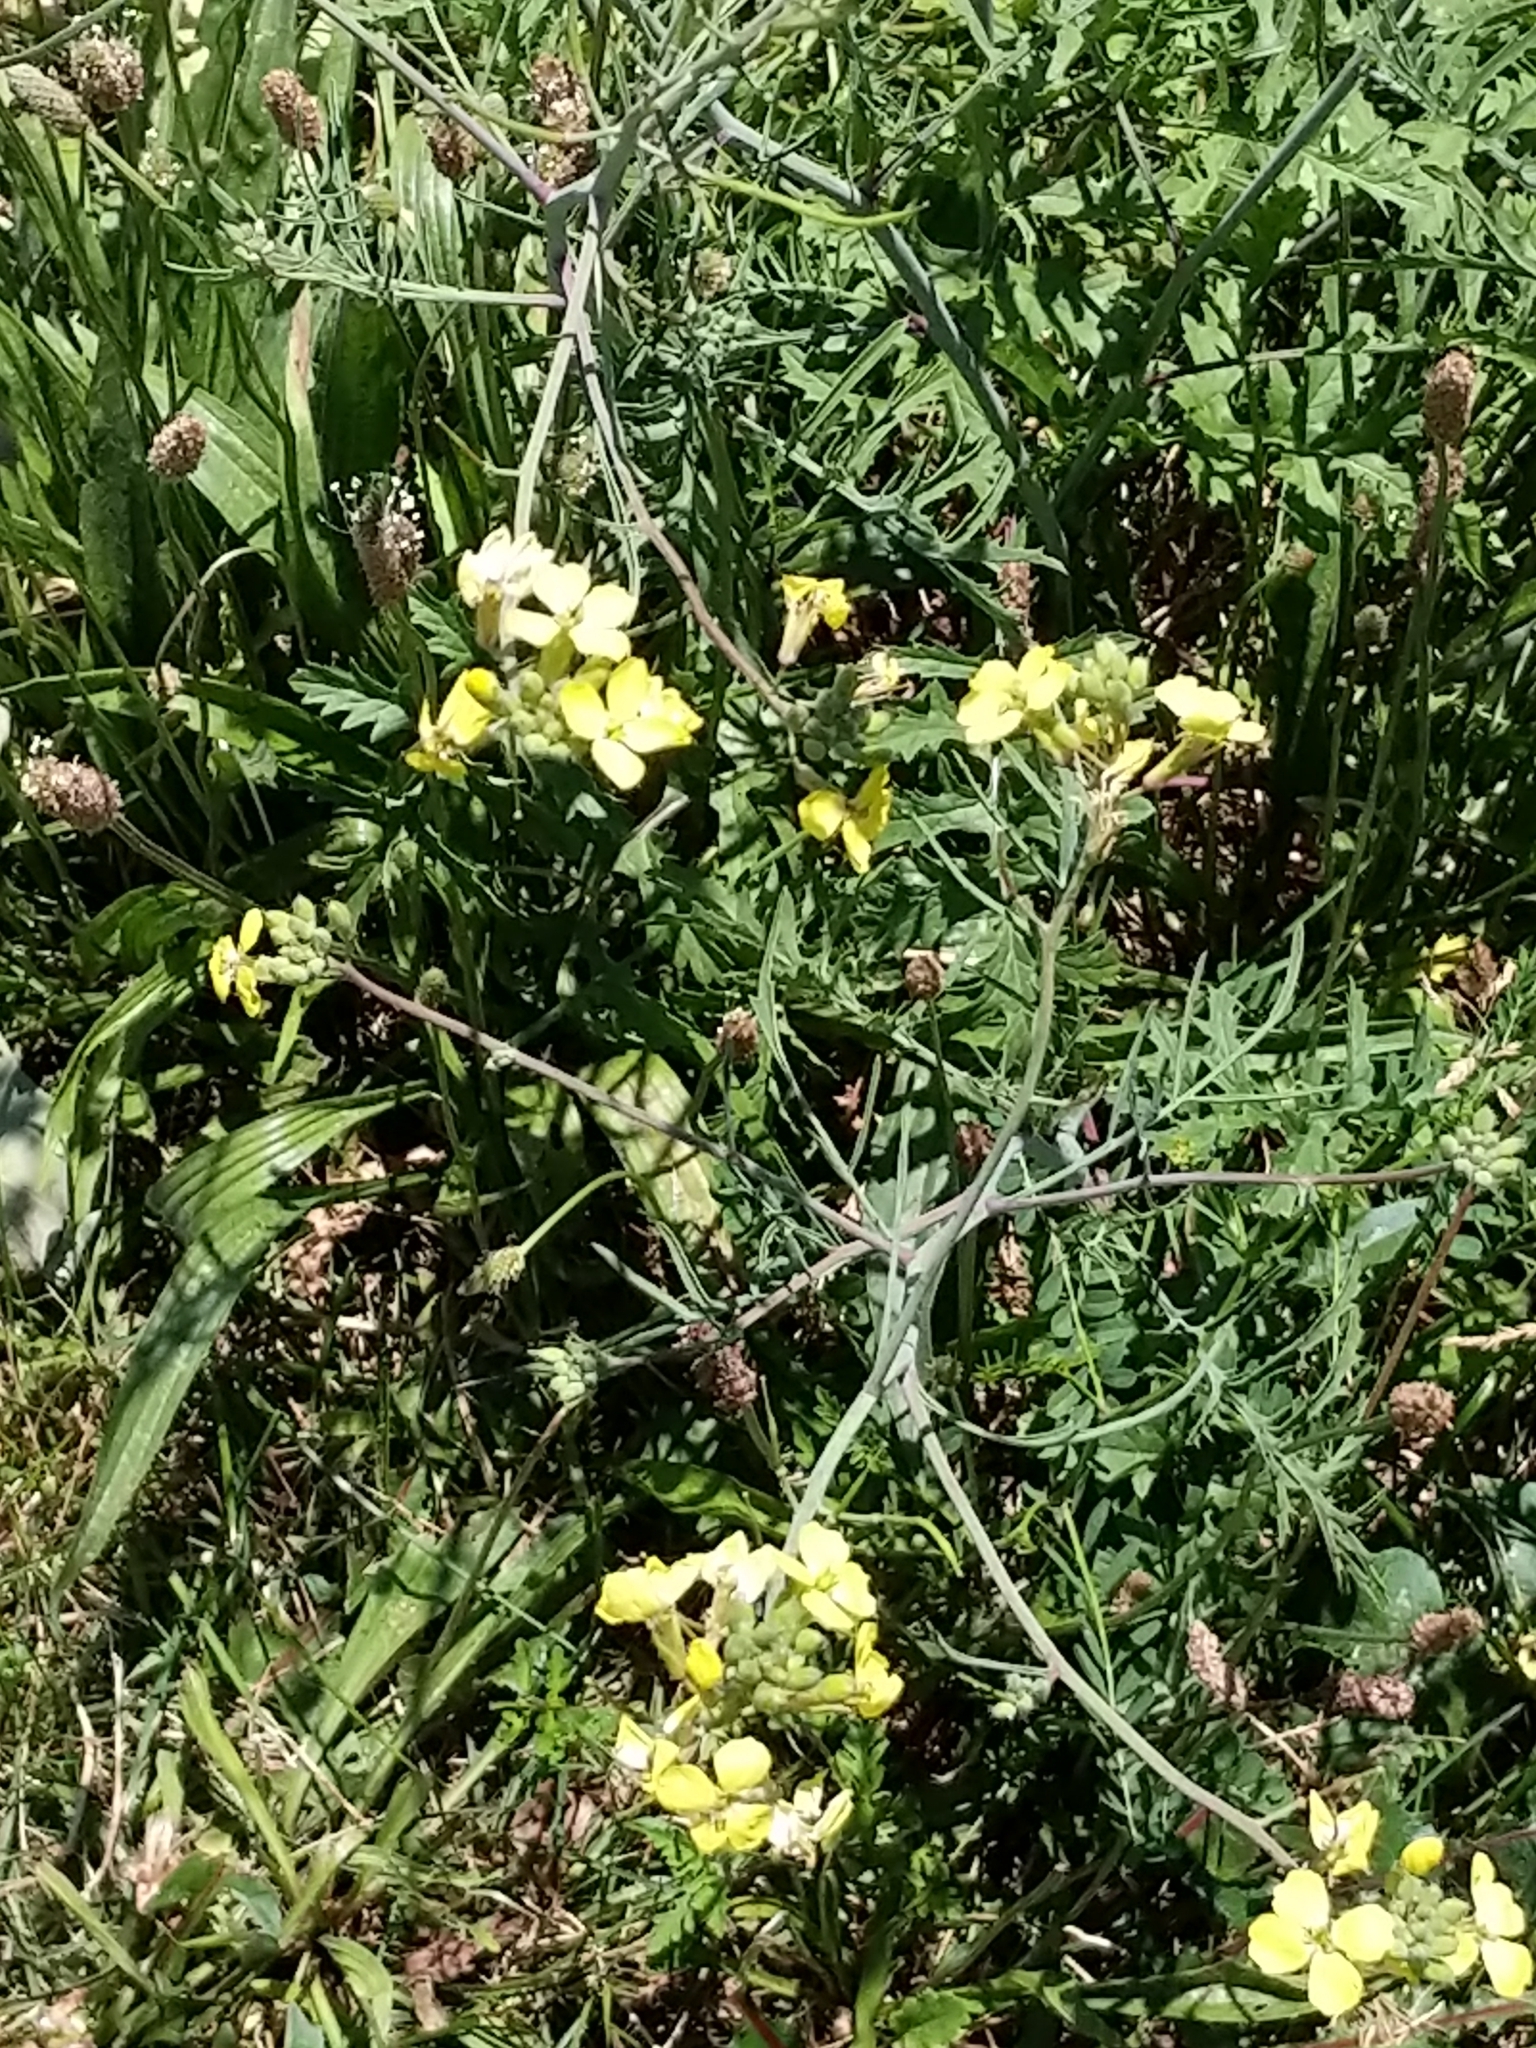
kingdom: Plantae
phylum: Tracheophyta
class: Magnoliopsida
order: Brassicales
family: Brassicaceae
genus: Coincya
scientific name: Coincya monensis
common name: Star-mustard
